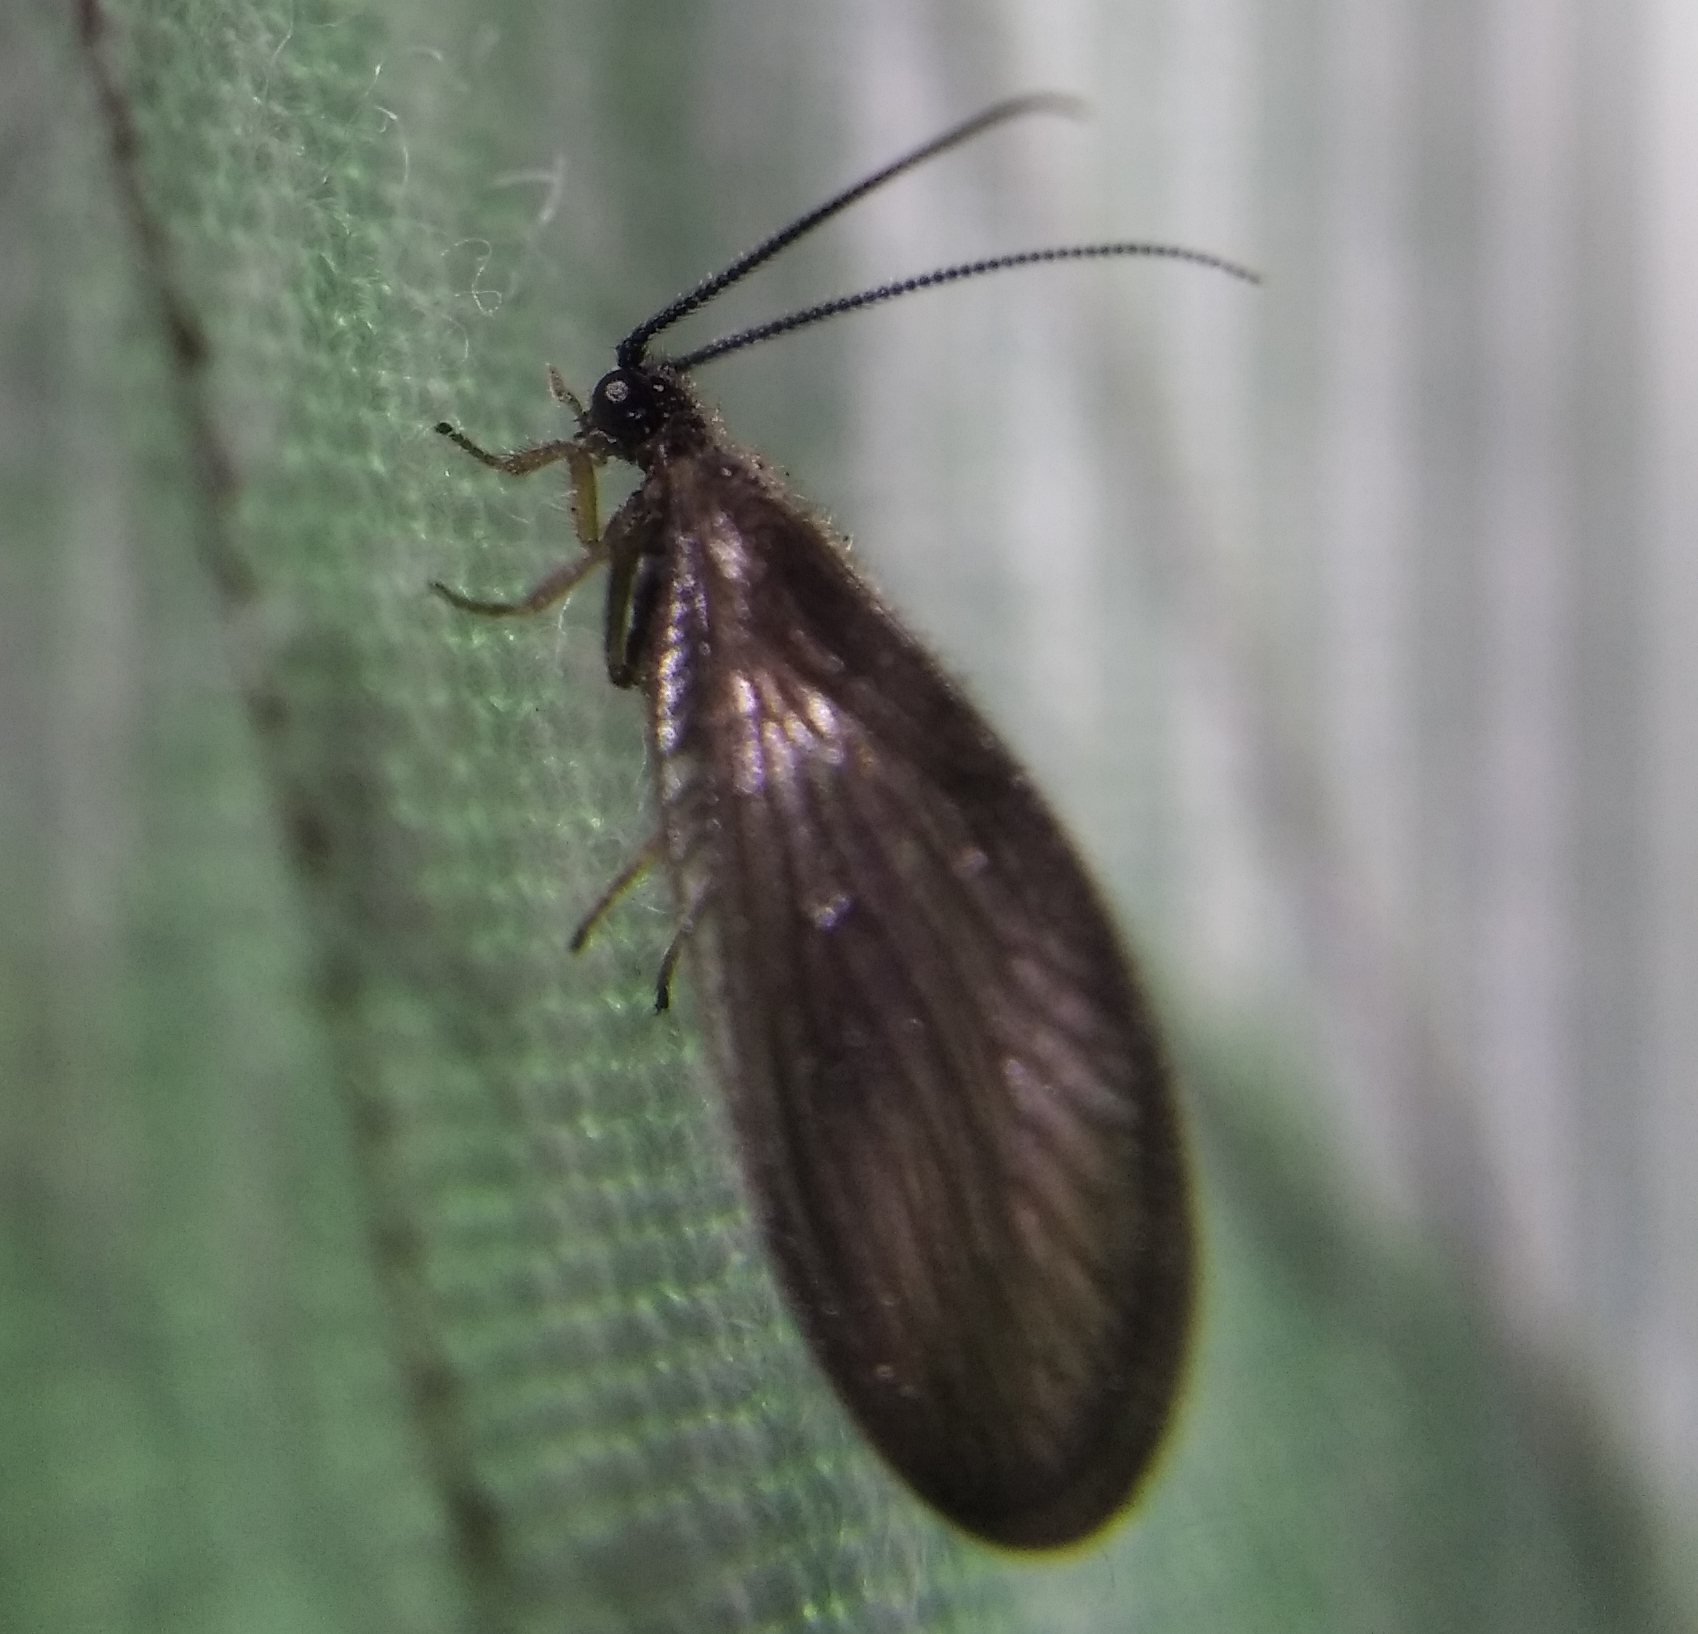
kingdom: Animalia
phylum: Arthropoda
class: Insecta
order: Neuroptera
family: Sisyridae
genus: Sisyra
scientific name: Sisyra nigra
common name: Black spongillafly
